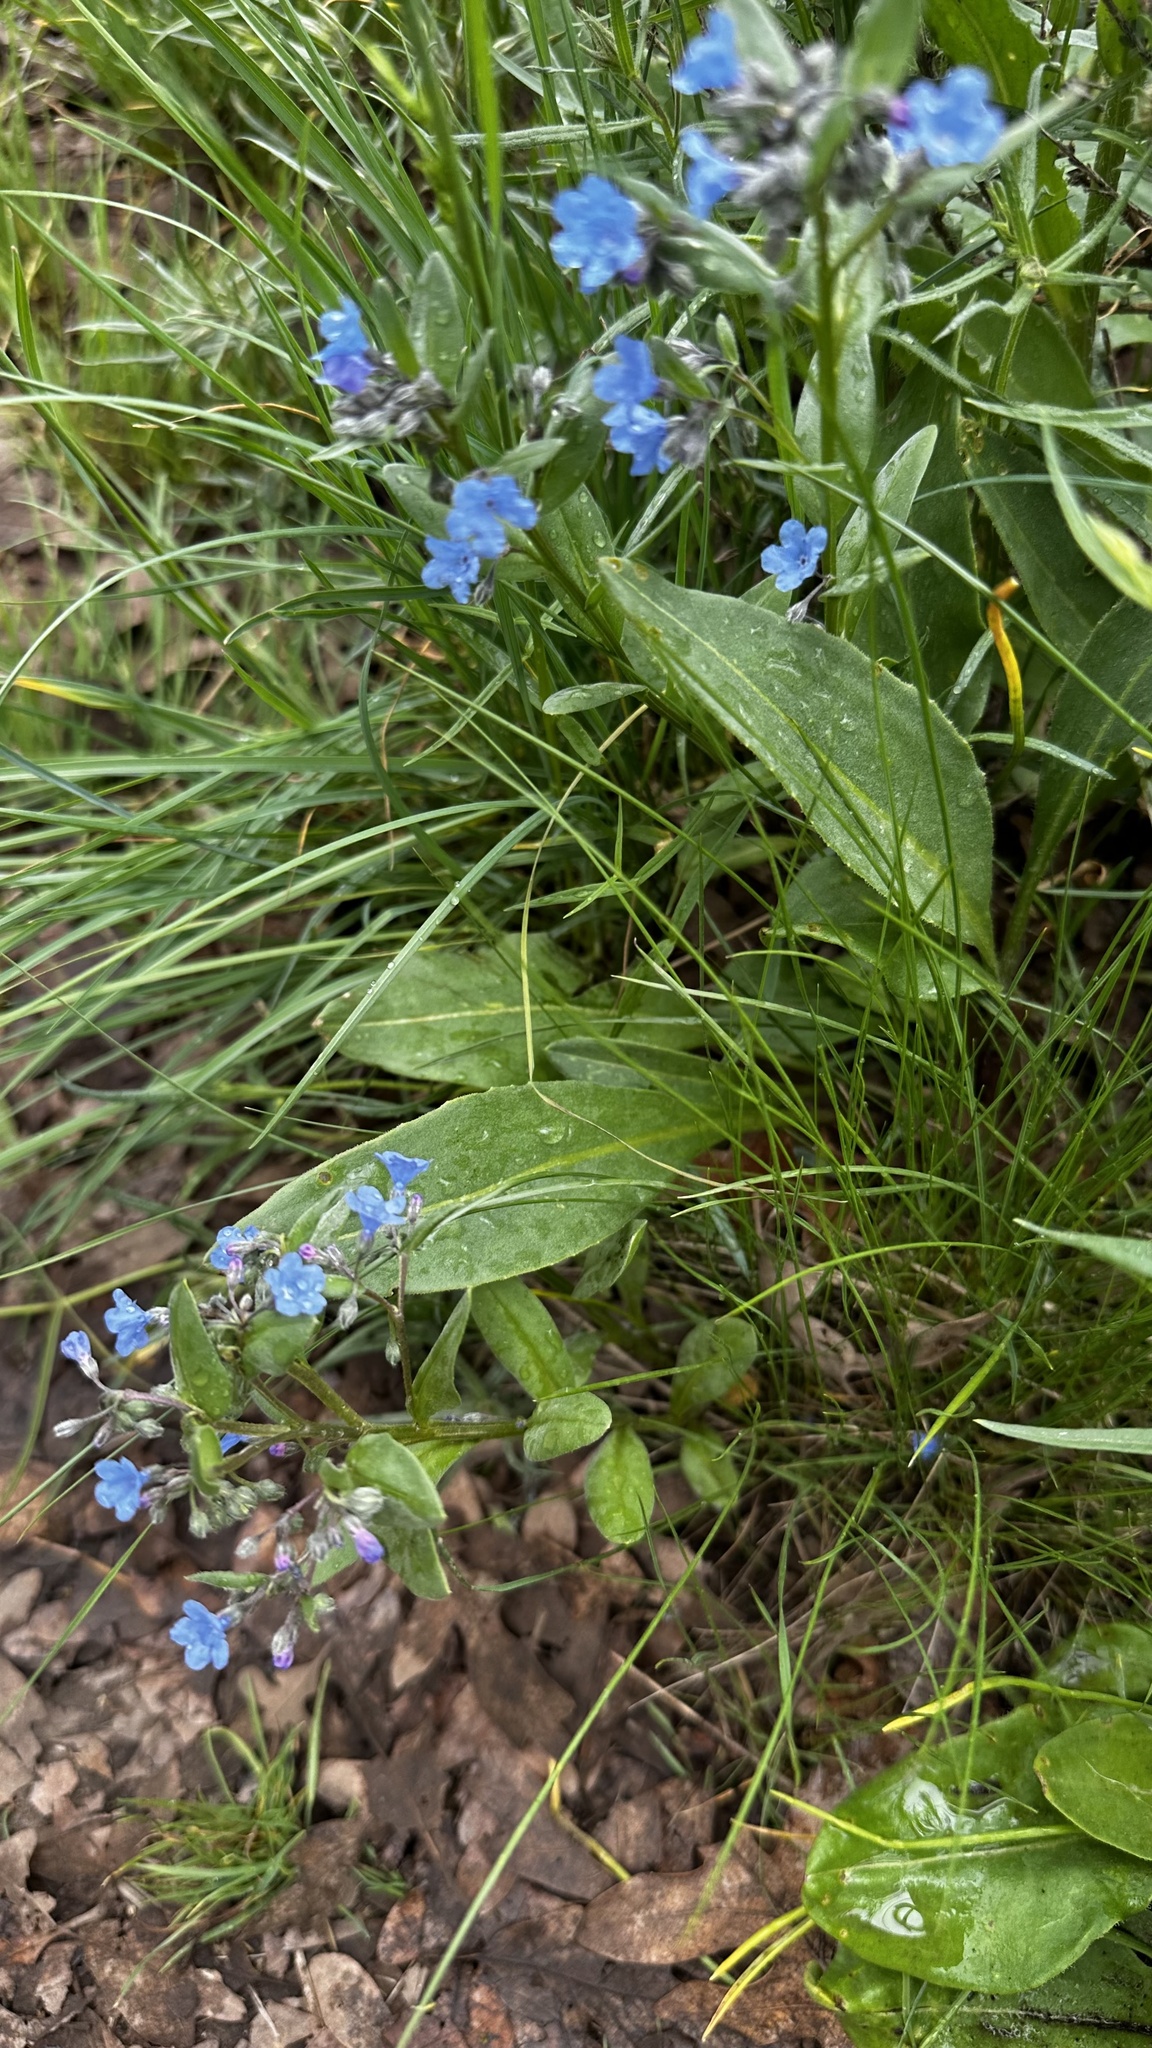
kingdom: Plantae
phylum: Tracheophyta
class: Magnoliopsida
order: Boraginales
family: Boraginaceae
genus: Mertensia
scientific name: Mertensia brevistyla
